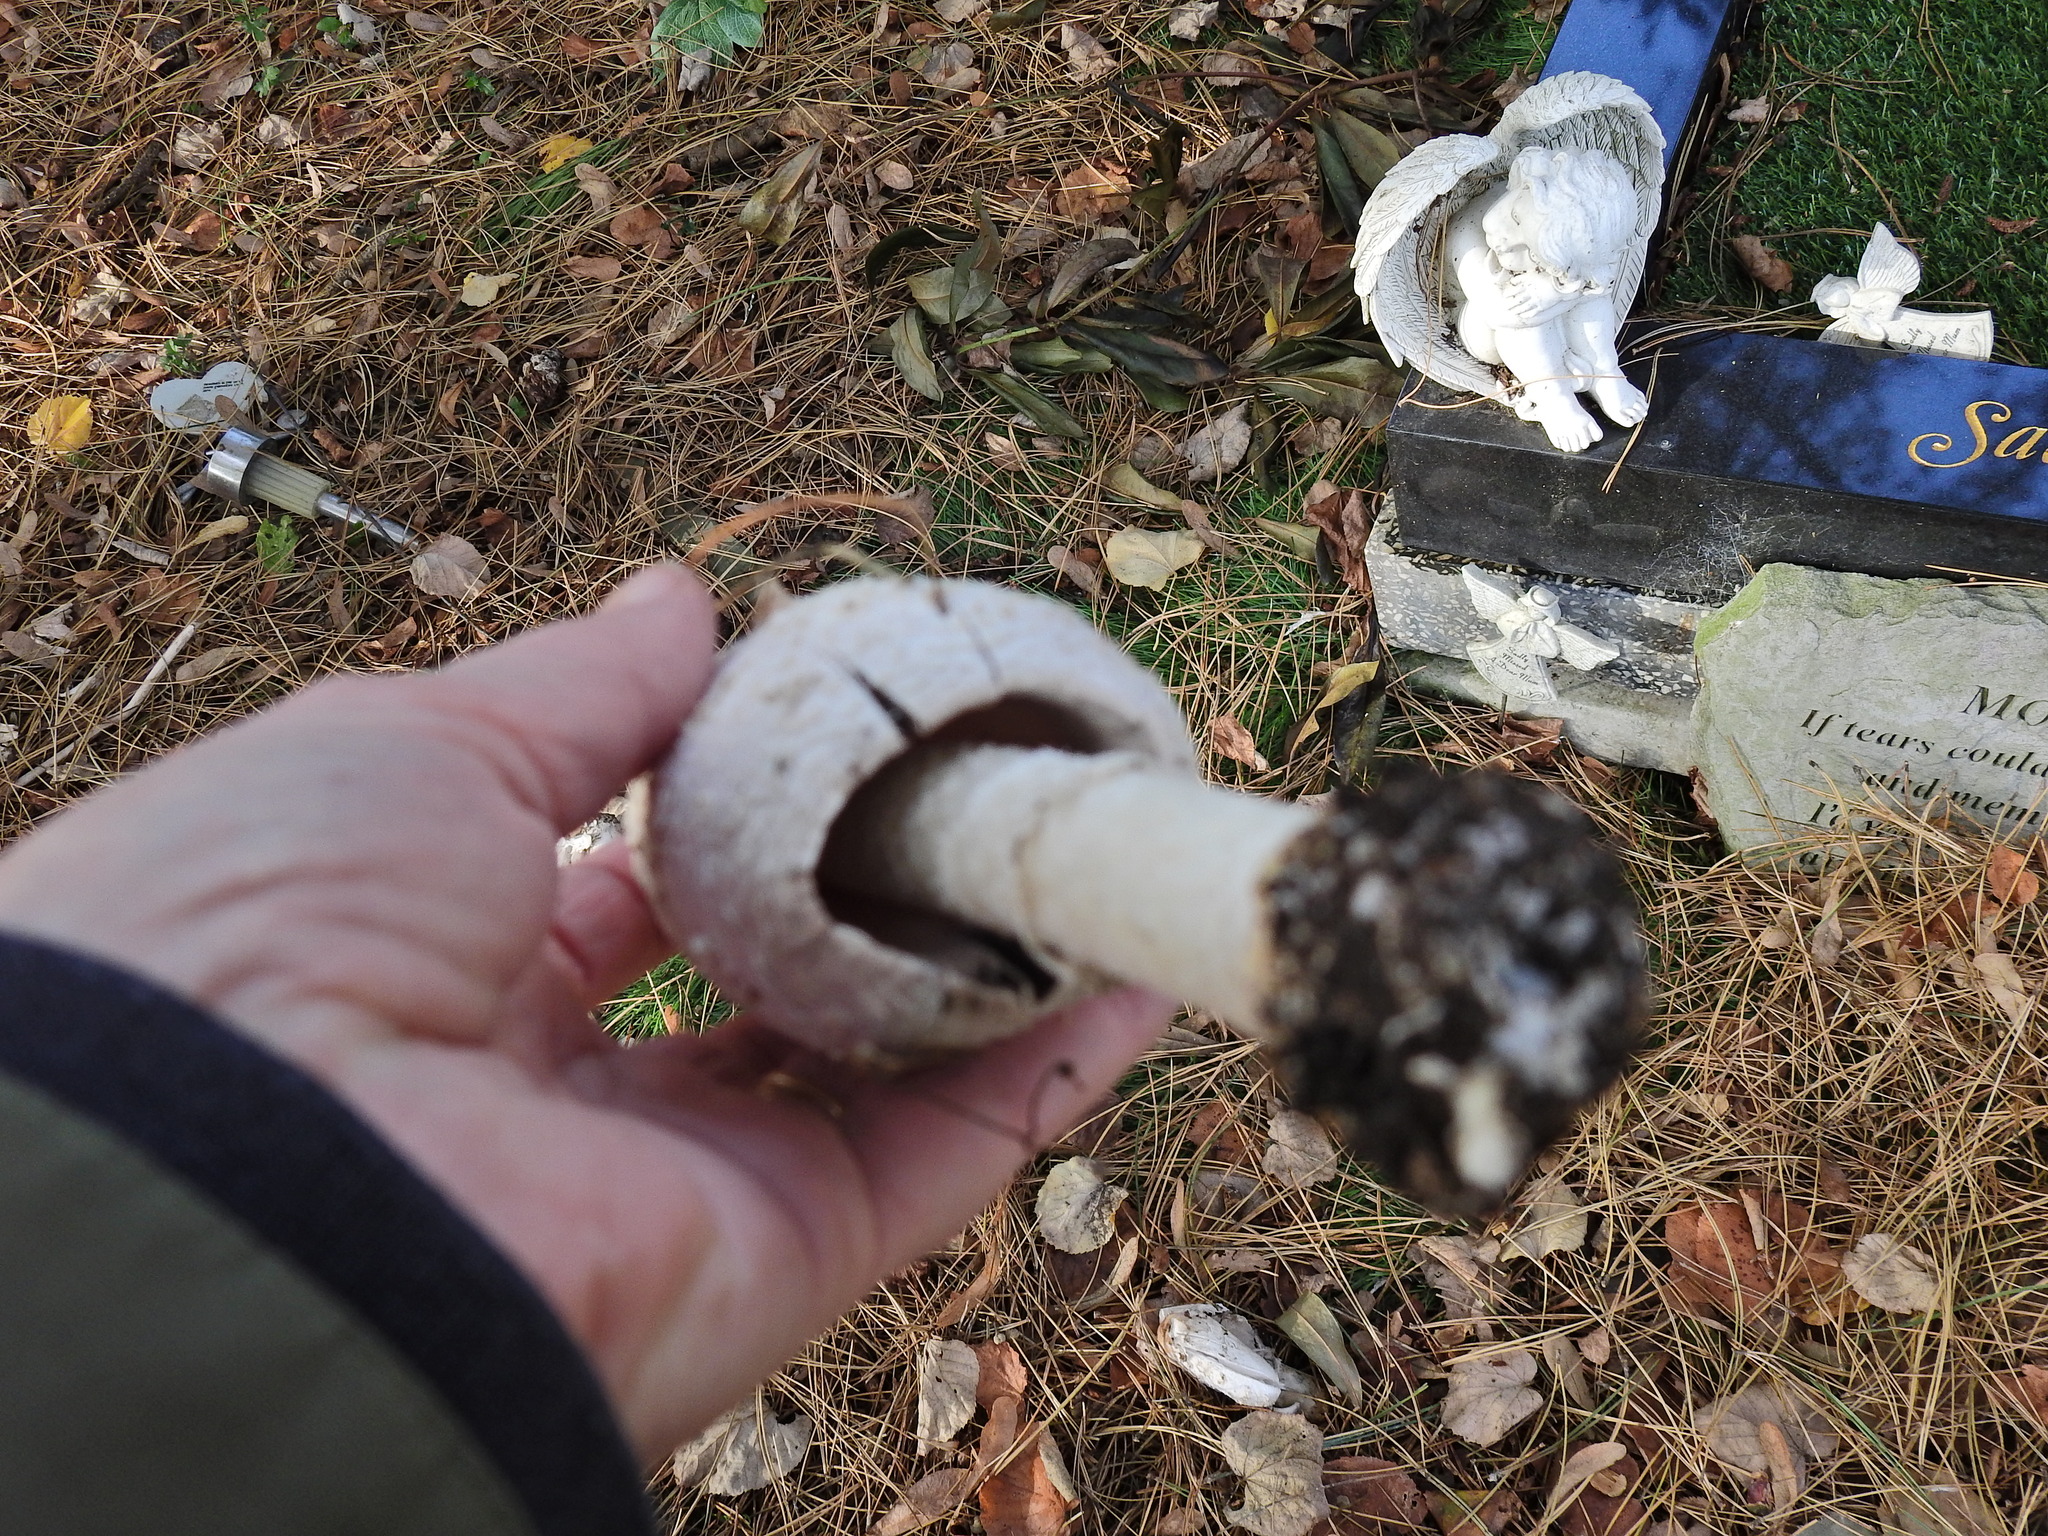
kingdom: Fungi
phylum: Basidiomycota
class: Agaricomycetes
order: Agaricales
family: Agaricaceae
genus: Coprinus
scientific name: Coprinus comatus
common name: Lawyer's wig
